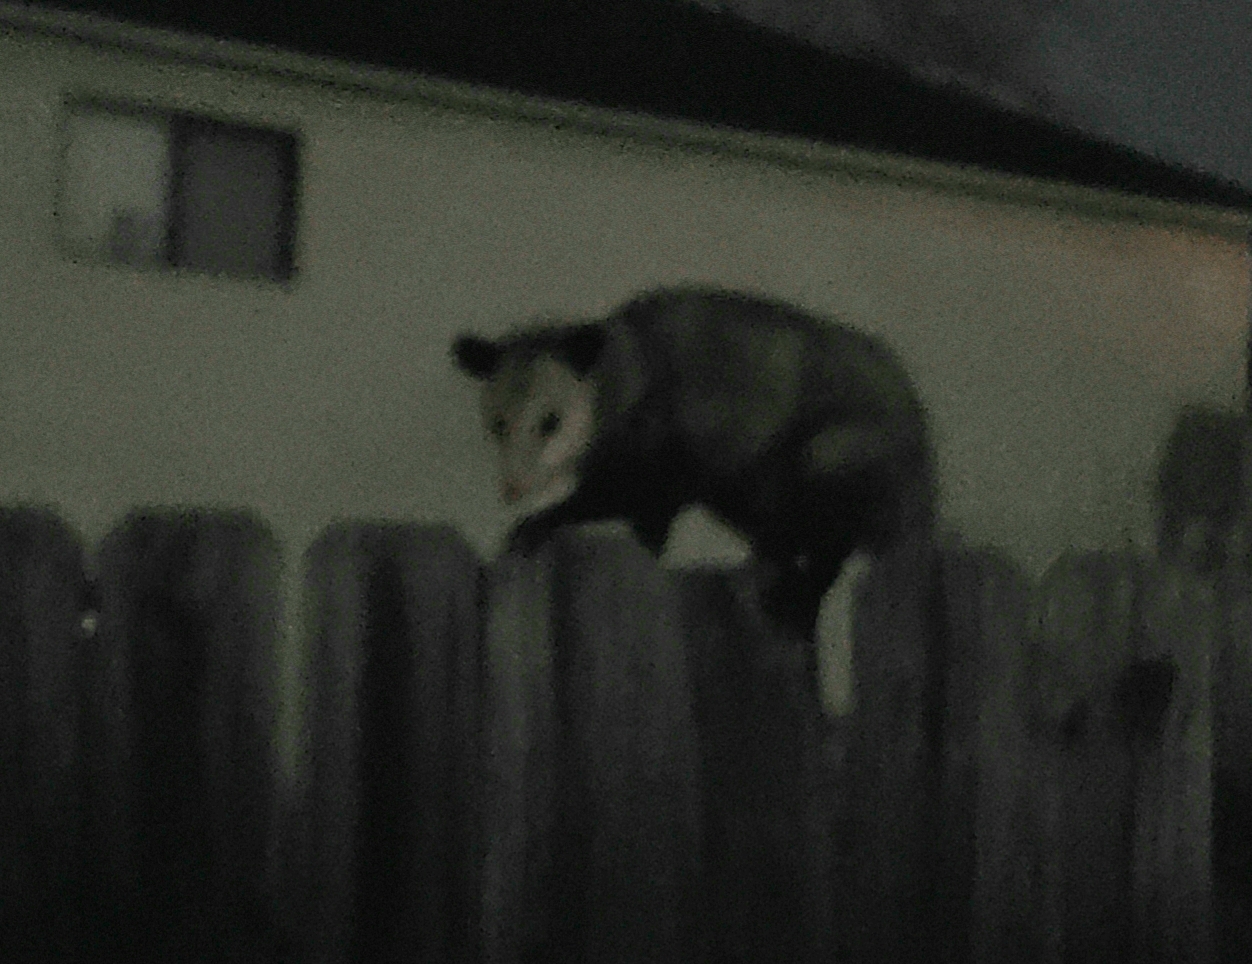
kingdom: Animalia
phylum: Chordata
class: Mammalia
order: Didelphimorphia
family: Didelphidae
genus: Didelphis
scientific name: Didelphis virginiana
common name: Virginia opossum
